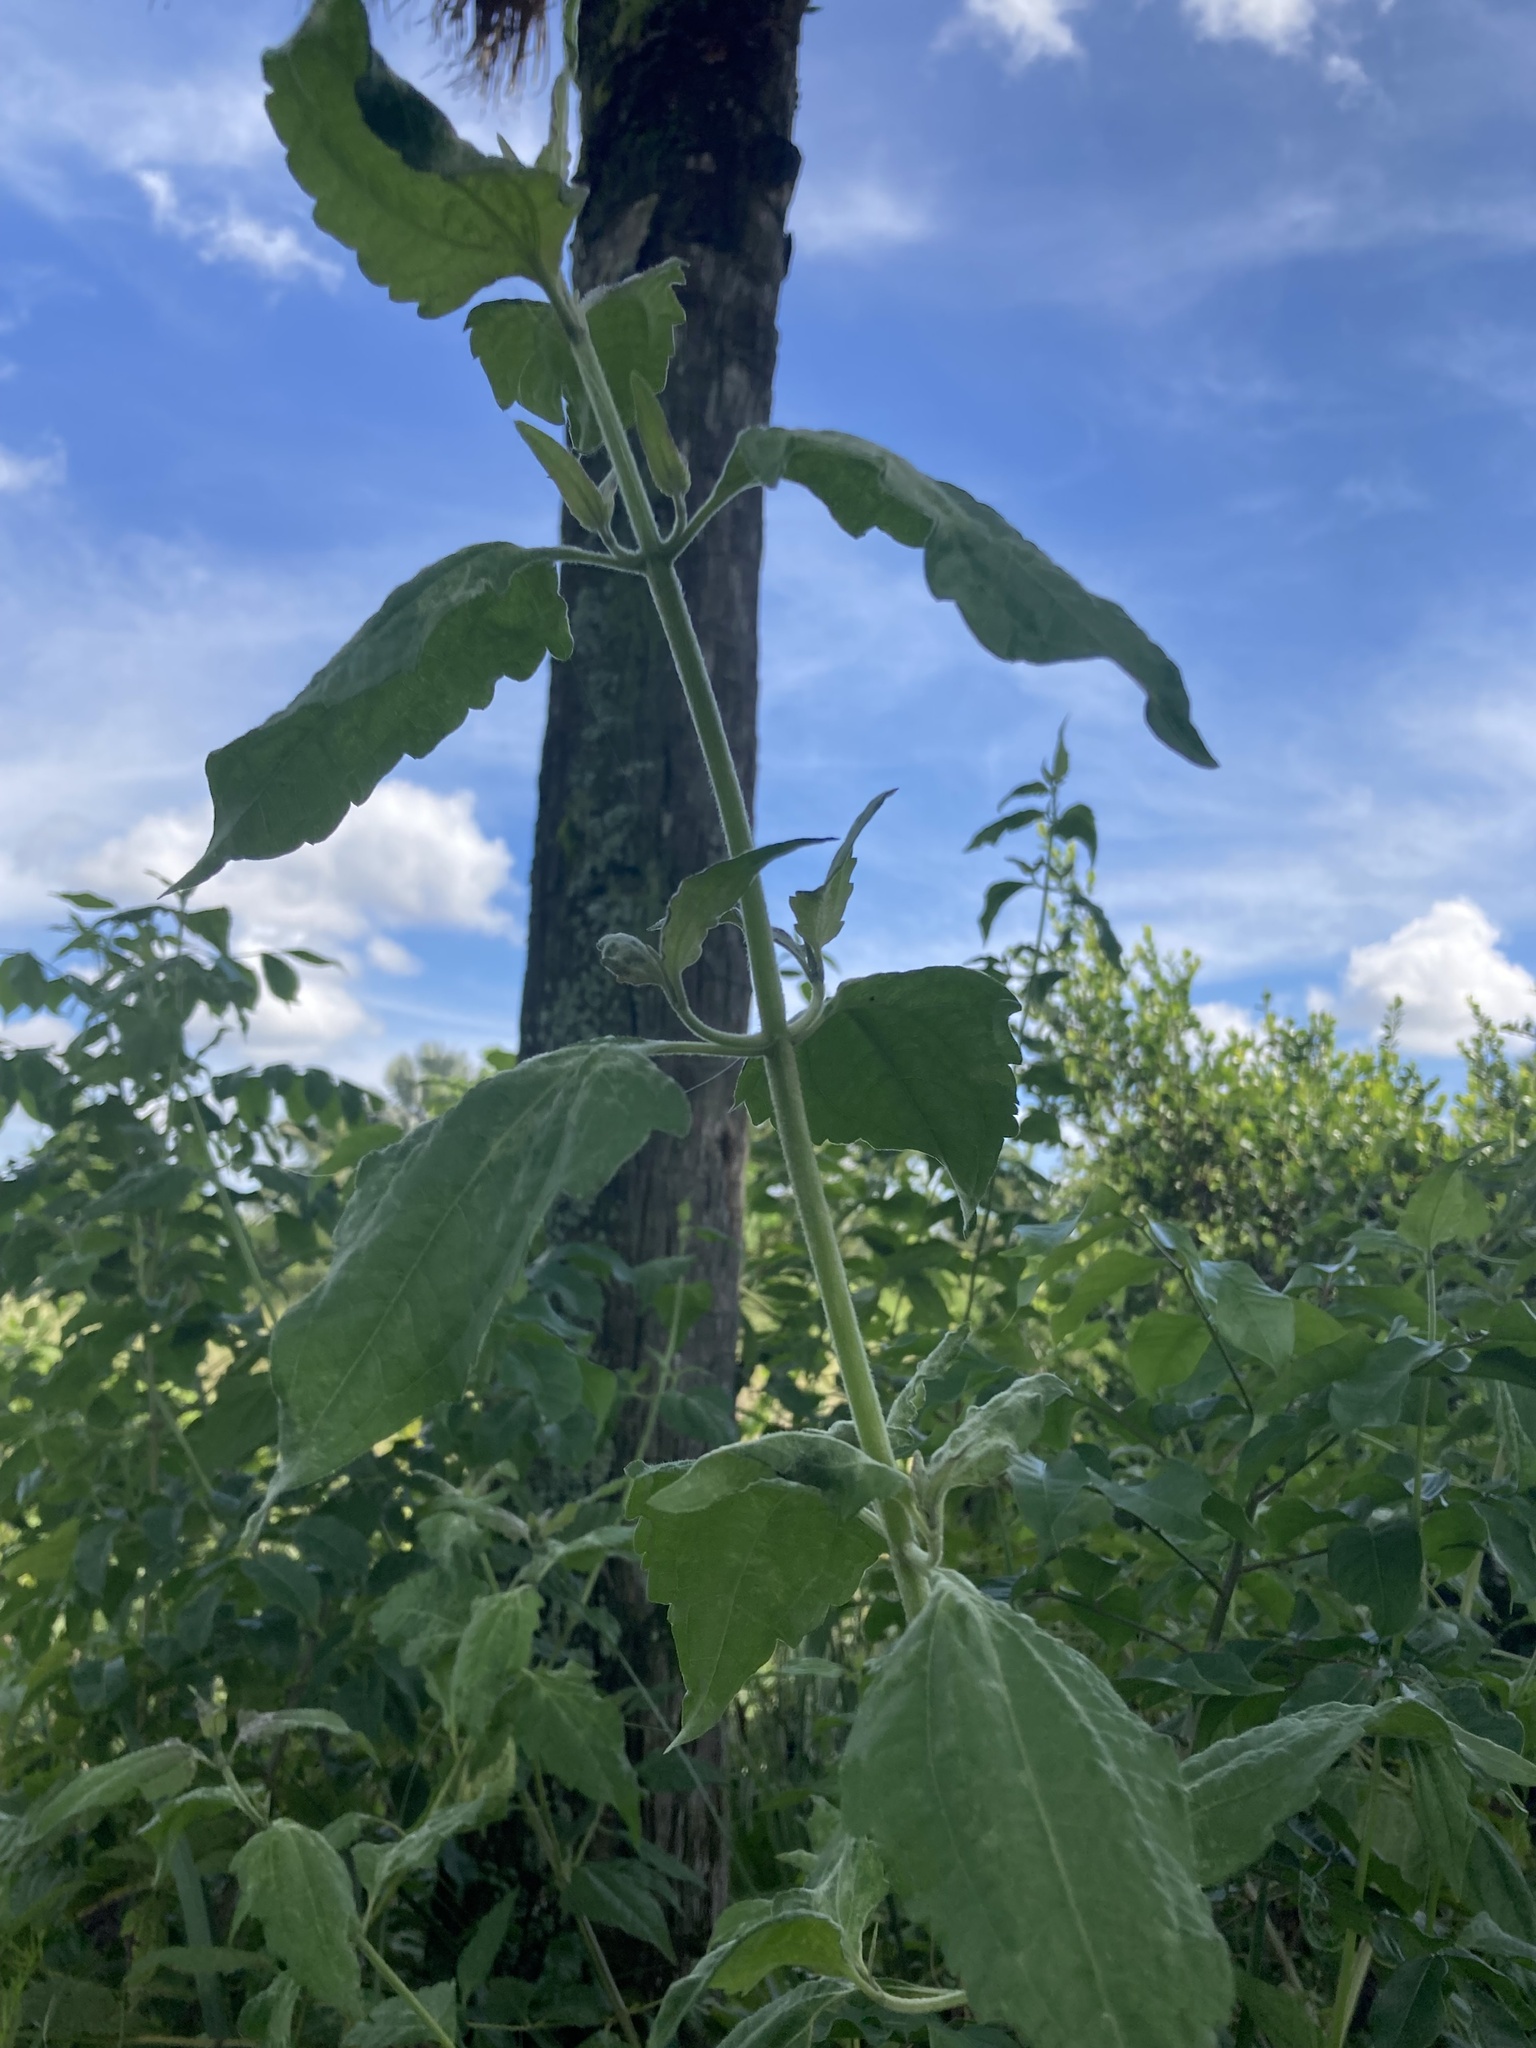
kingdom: Plantae
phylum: Tracheophyta
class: Magnoliopsida
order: Asterales
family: Asteraceae
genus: Chromolaena
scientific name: Chromolaena odorata
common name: Siamweed
